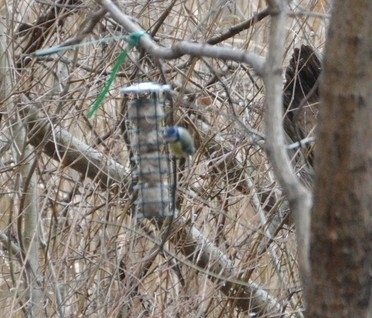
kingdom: Animalia
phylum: Chordata
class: Aves
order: Passeriformes
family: Paridae
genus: Cyanistes
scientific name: Cyanistes caeruleus
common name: Eurasian blue tit
